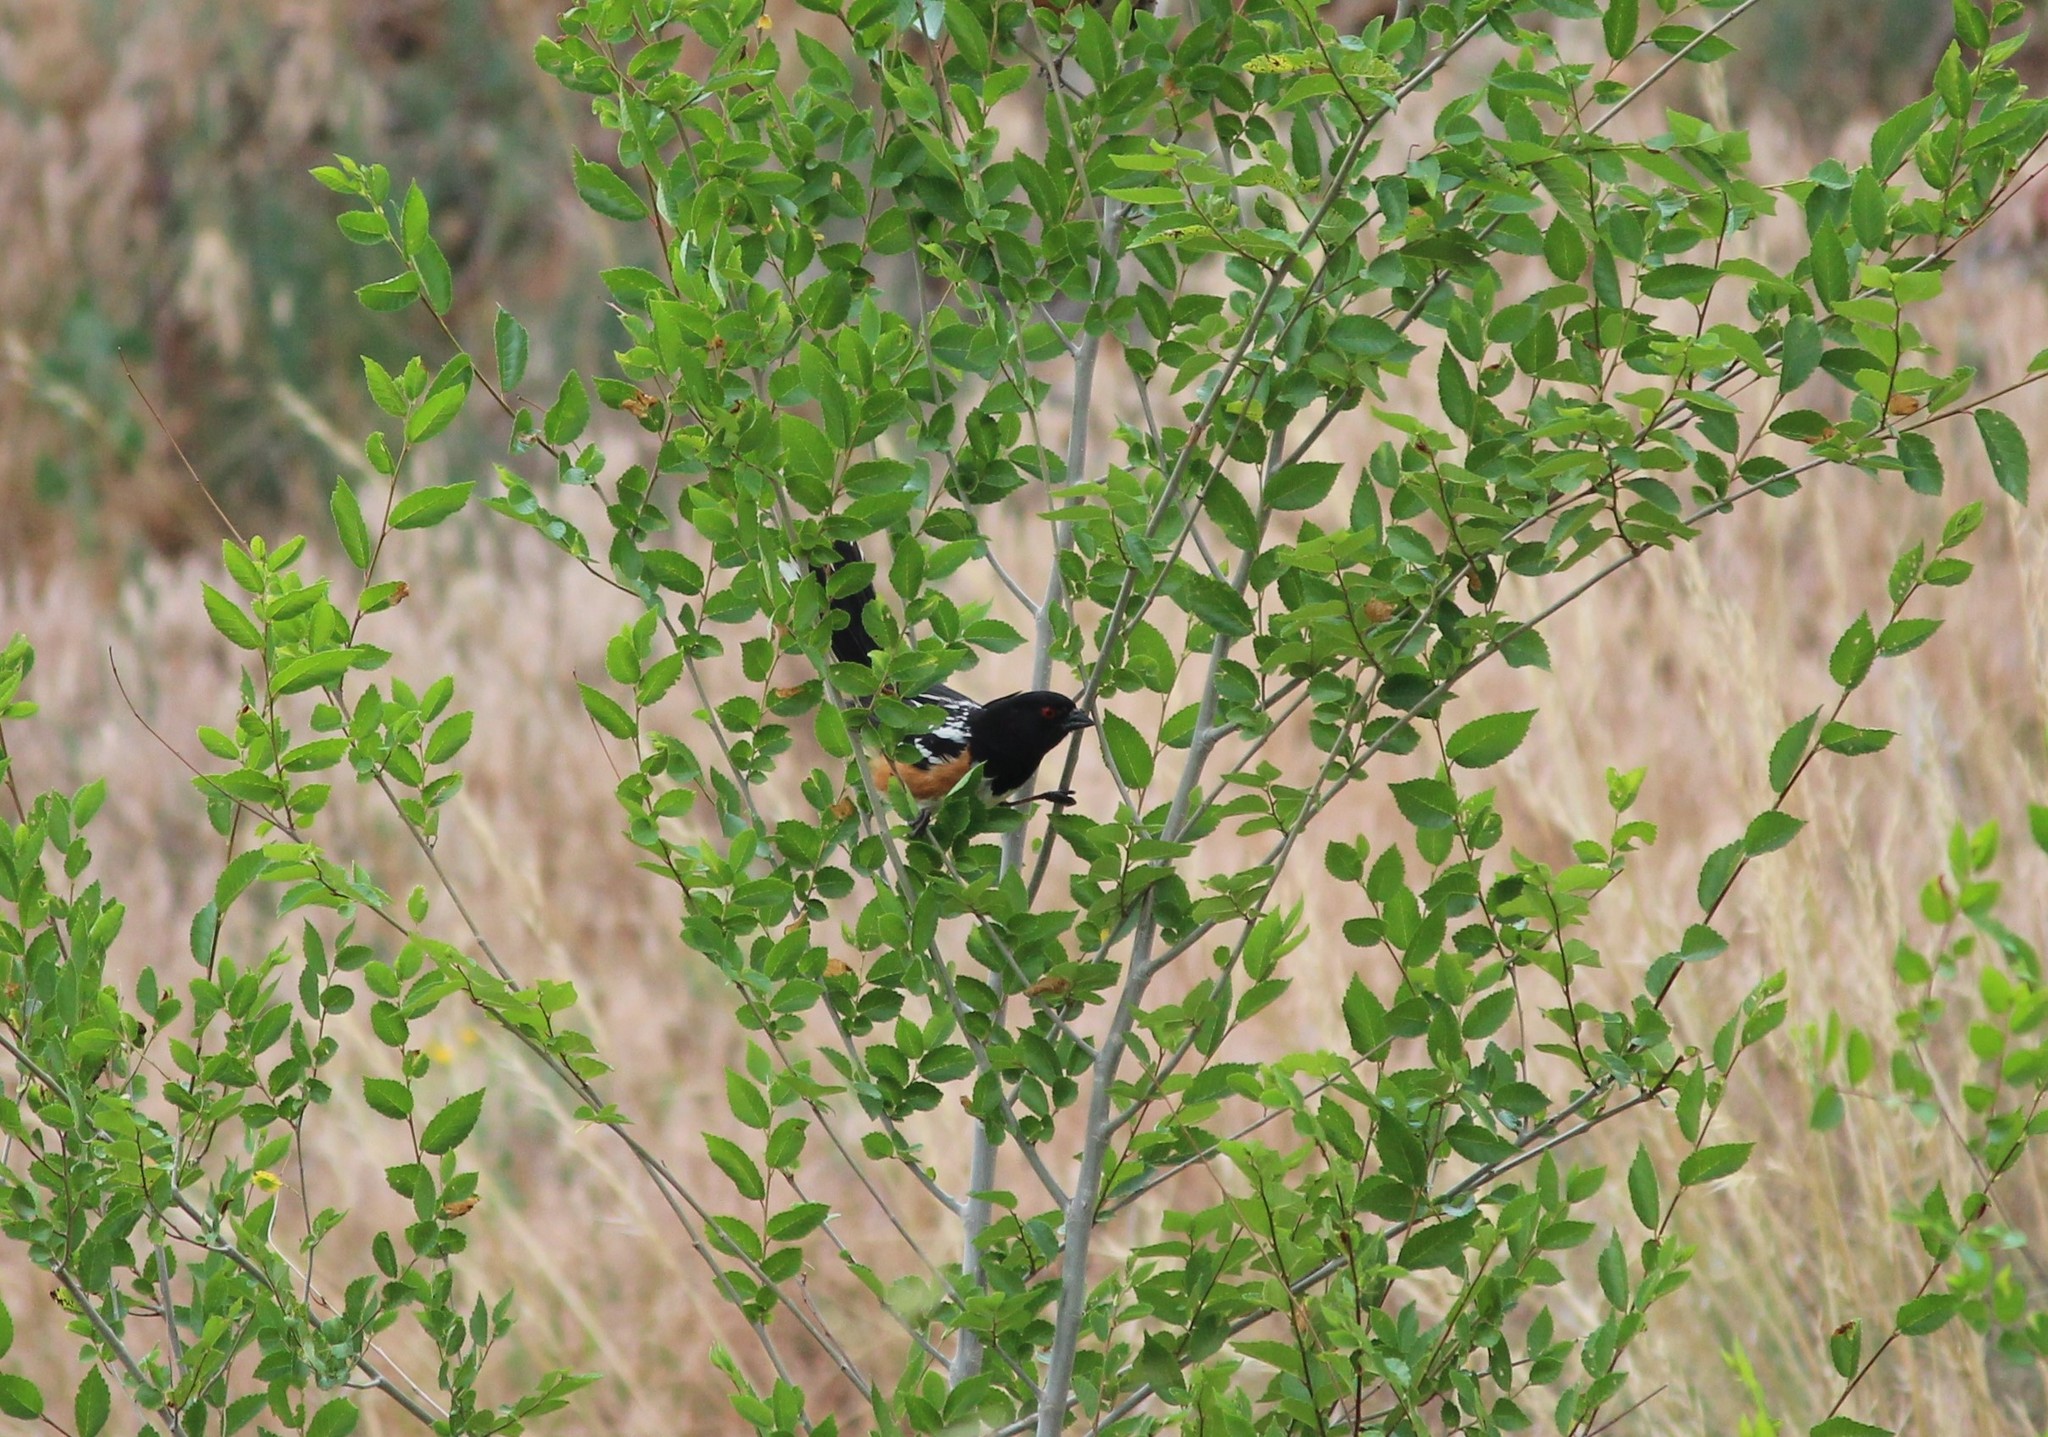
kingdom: Animalia
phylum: Chordata
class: Aves
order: Passeriformes
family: Passerellidae
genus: Pipilo
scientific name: Pipilo maculatus
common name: Spotted towhee
